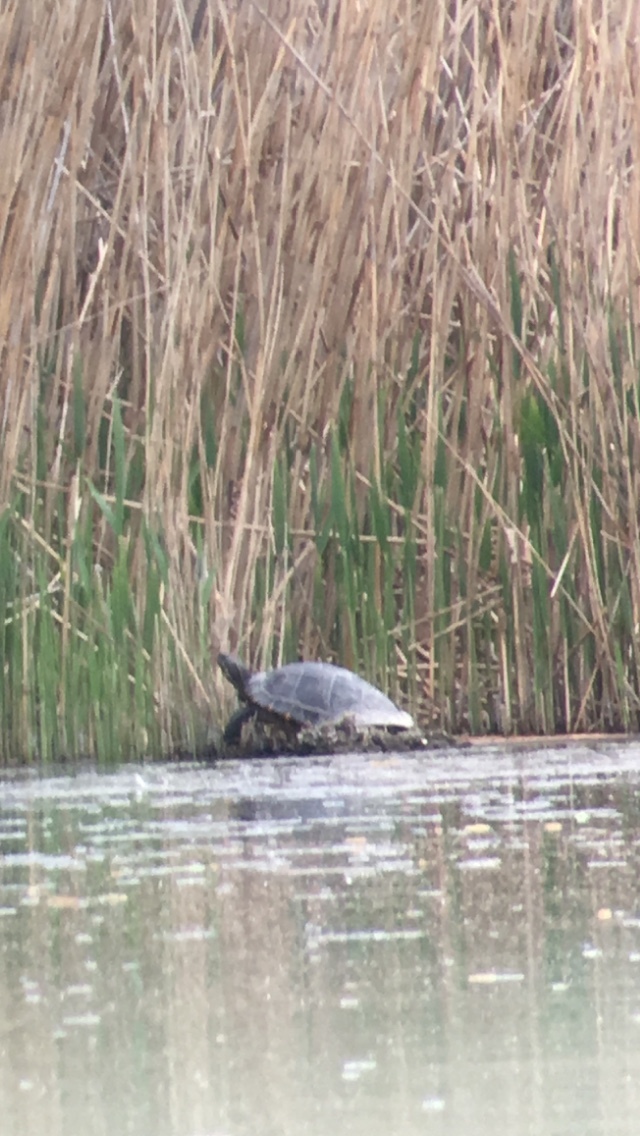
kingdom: Animalia
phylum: Chordata
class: Testudines
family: Emydidae
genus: Trachemys
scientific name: Trachemys scripta
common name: Slider
